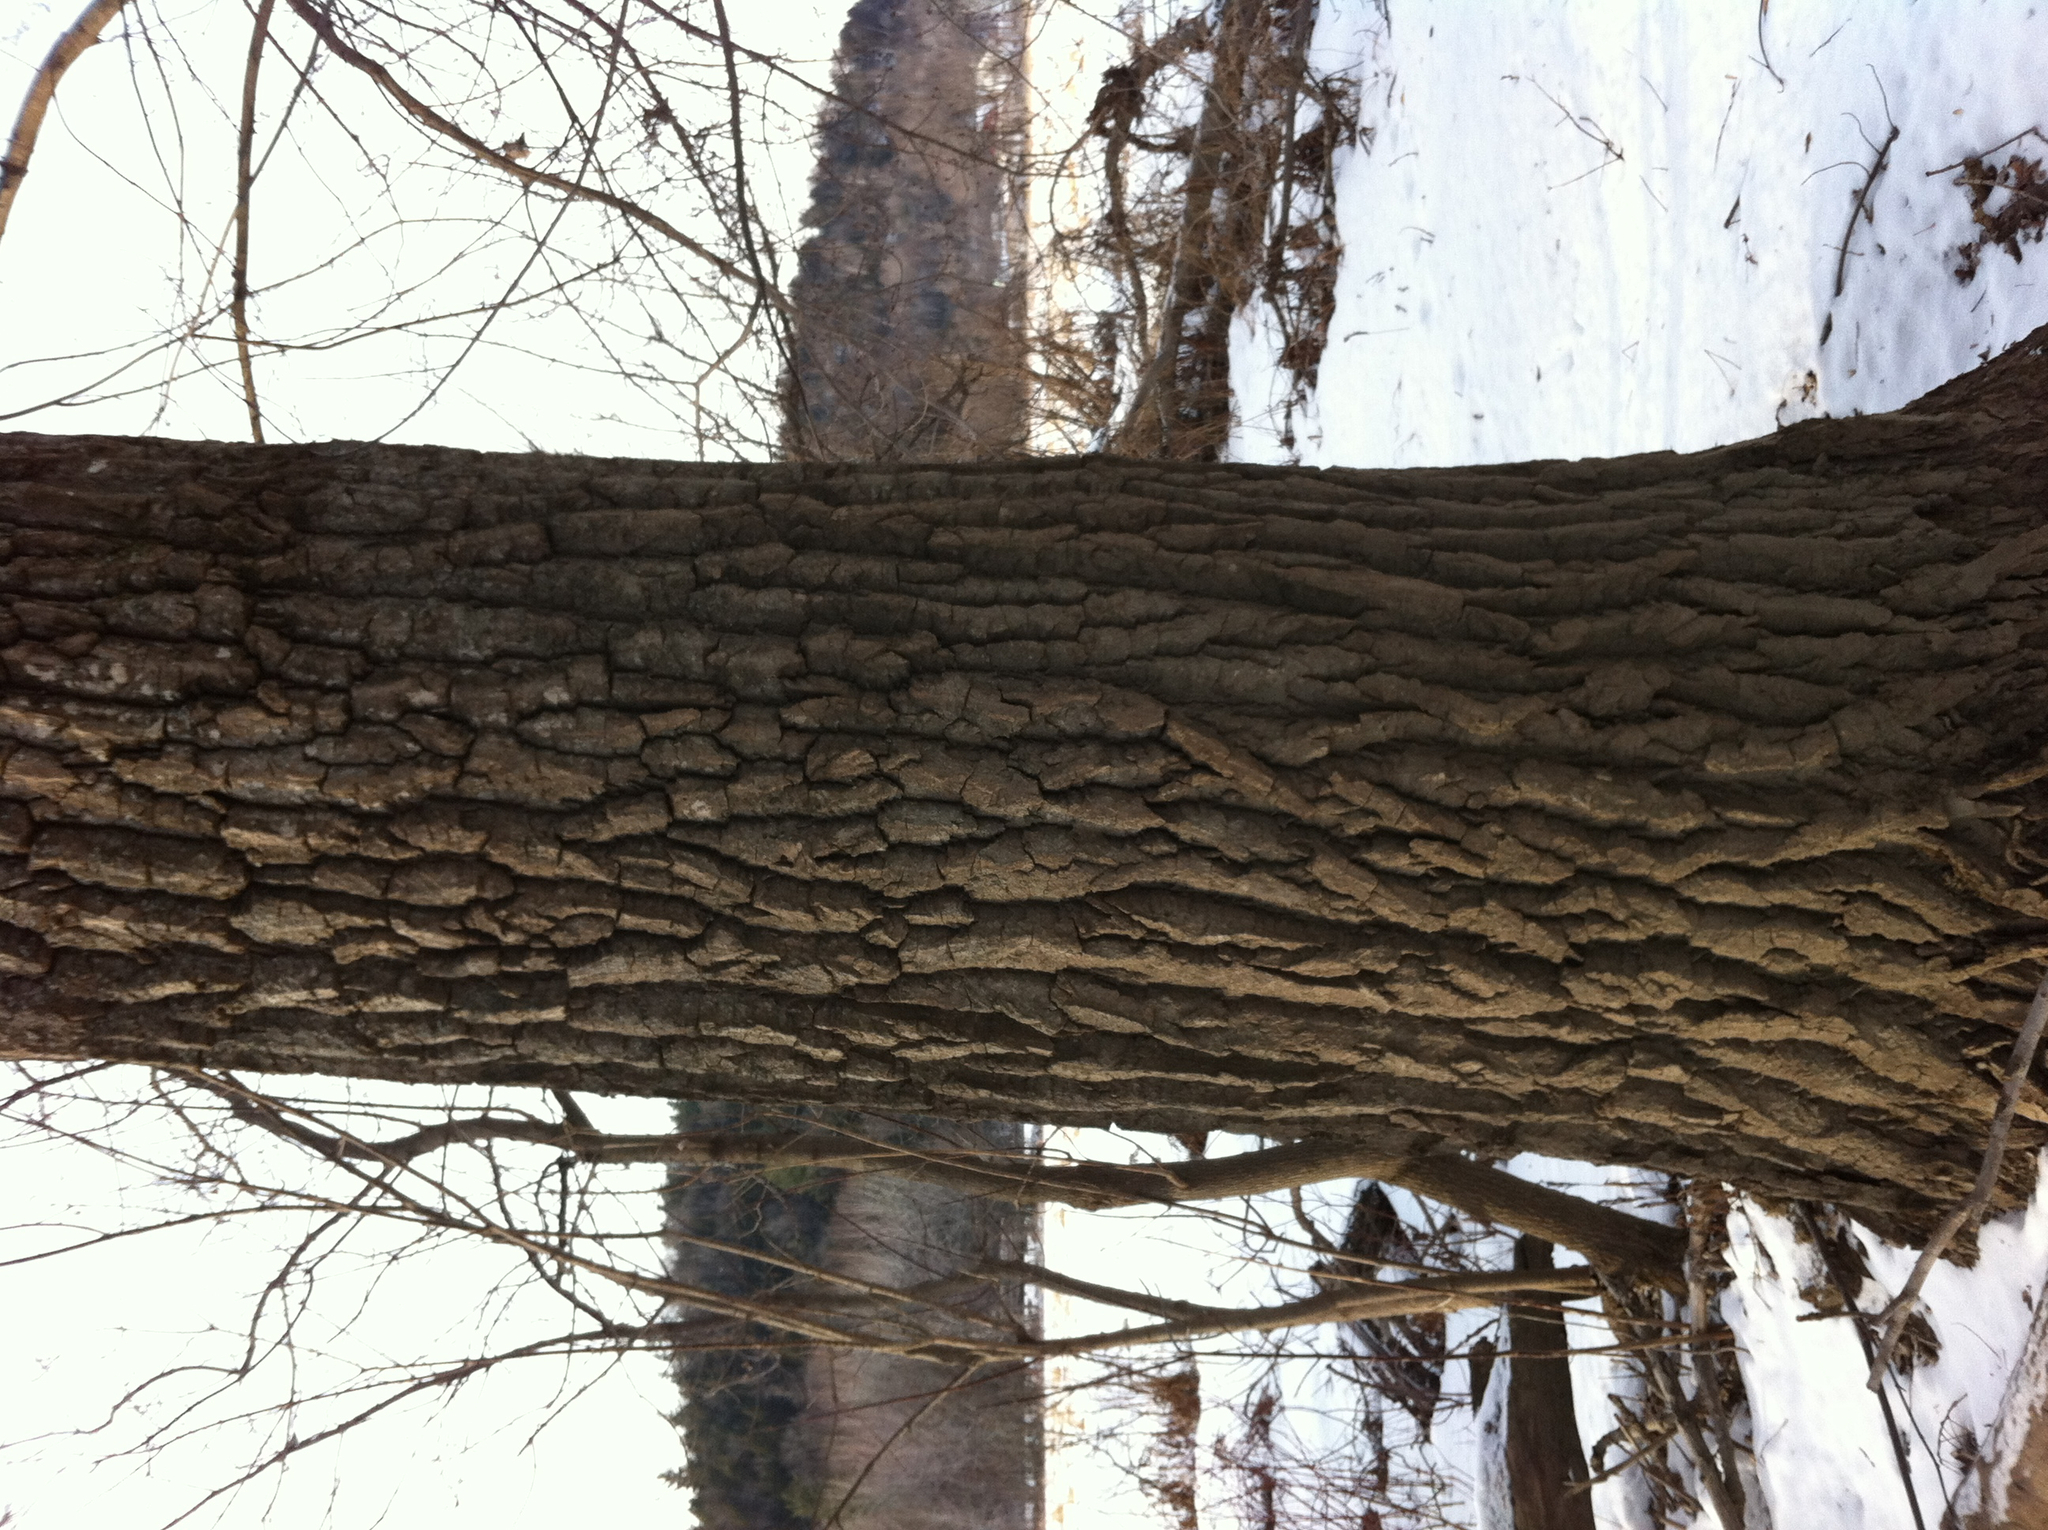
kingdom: Plantae
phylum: Tracheophyta
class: Magnoliopsida
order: Malpighiales
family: Salicaceae
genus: Populus
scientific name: Populus deltoides
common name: Eastern cottonwood
